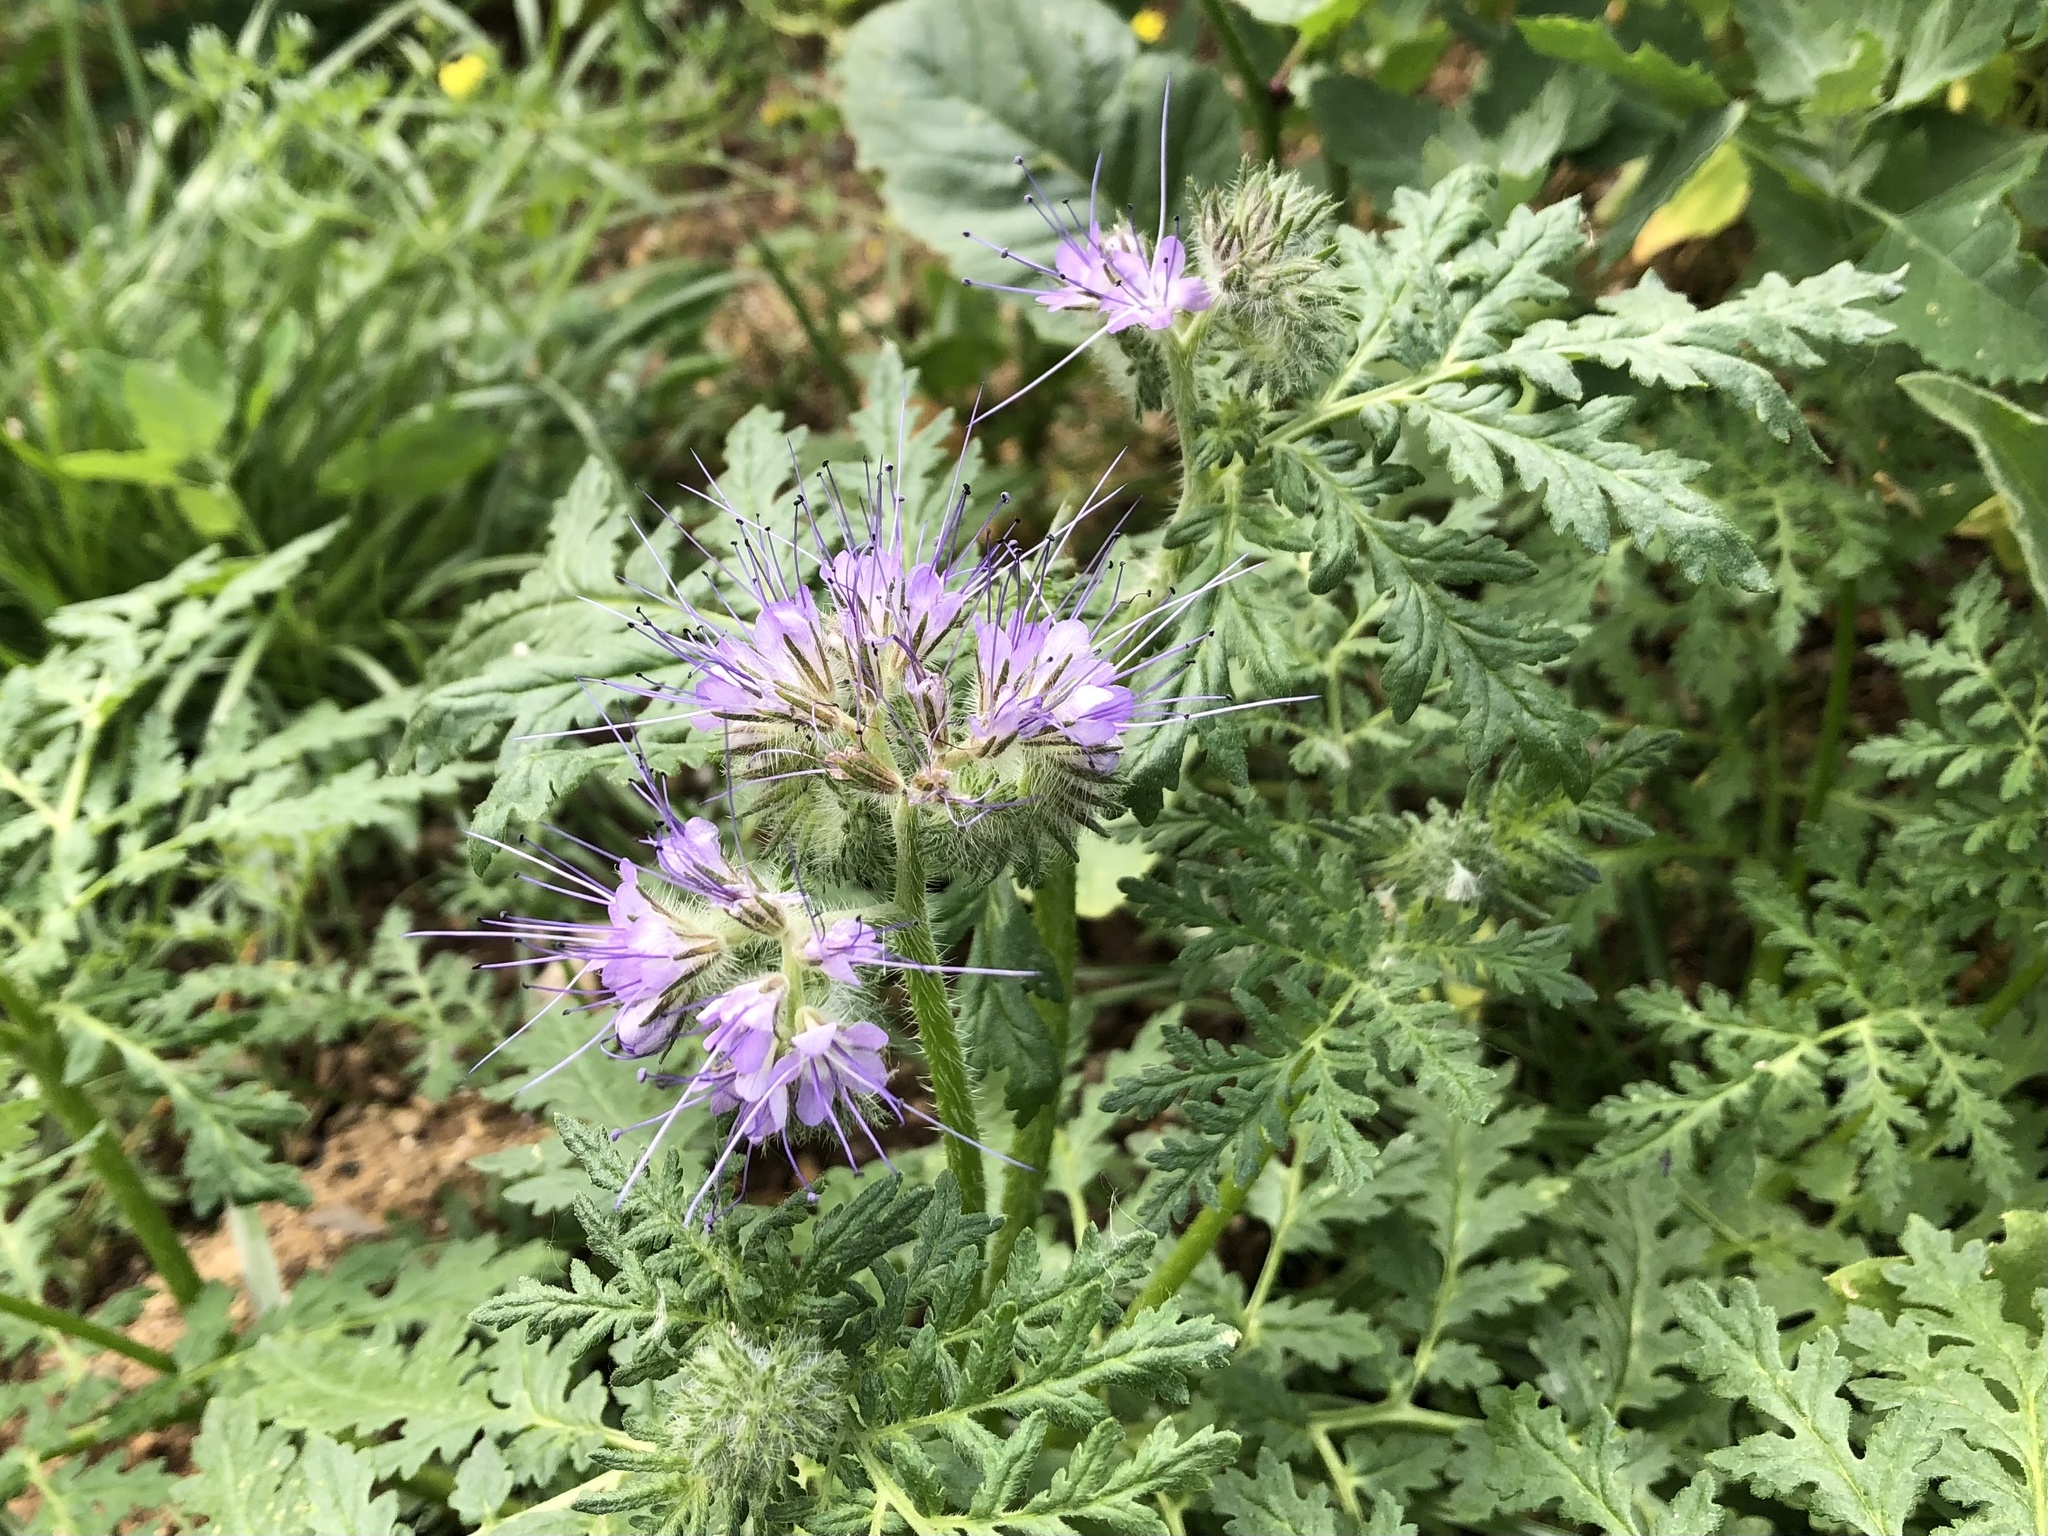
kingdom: Plantae
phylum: Tracheophyta
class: Magnoliopsida
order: Boraginales
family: Hydrophyllaceae
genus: Phacelia
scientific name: Phacelia tanacetifolia
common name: Phacelia
